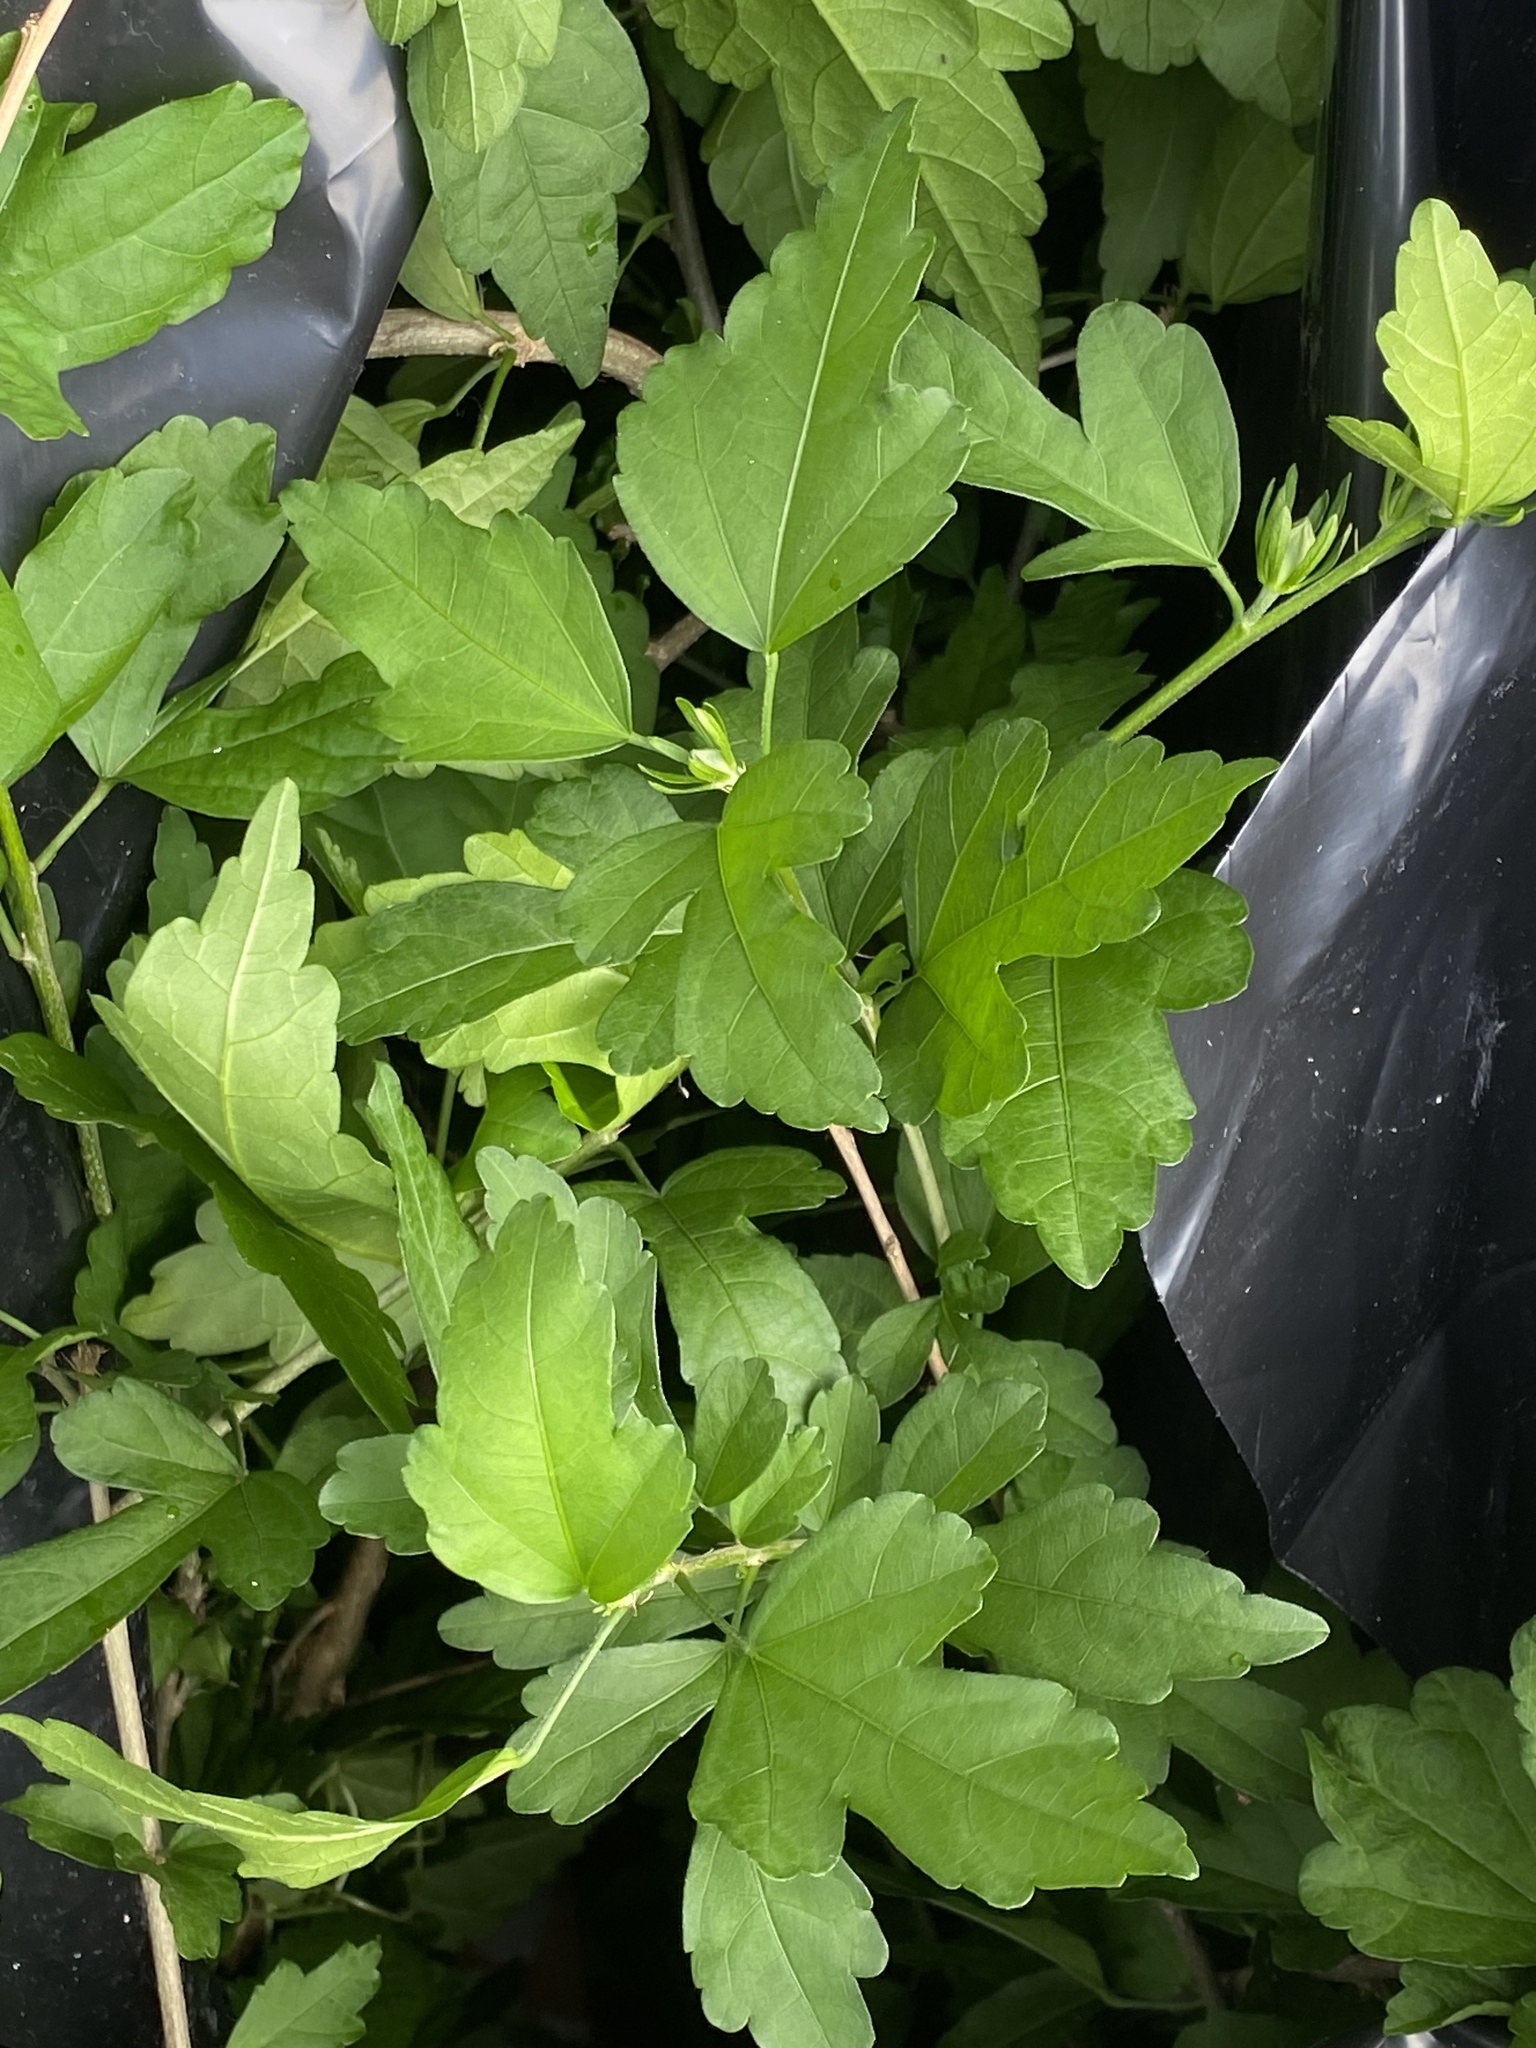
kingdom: Plantae
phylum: Tracheophyta
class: Magnoliopsida
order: Malvales
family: Malvaceae
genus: Hibiscus
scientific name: Hibiscus syriacus
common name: Syrian ketmia
